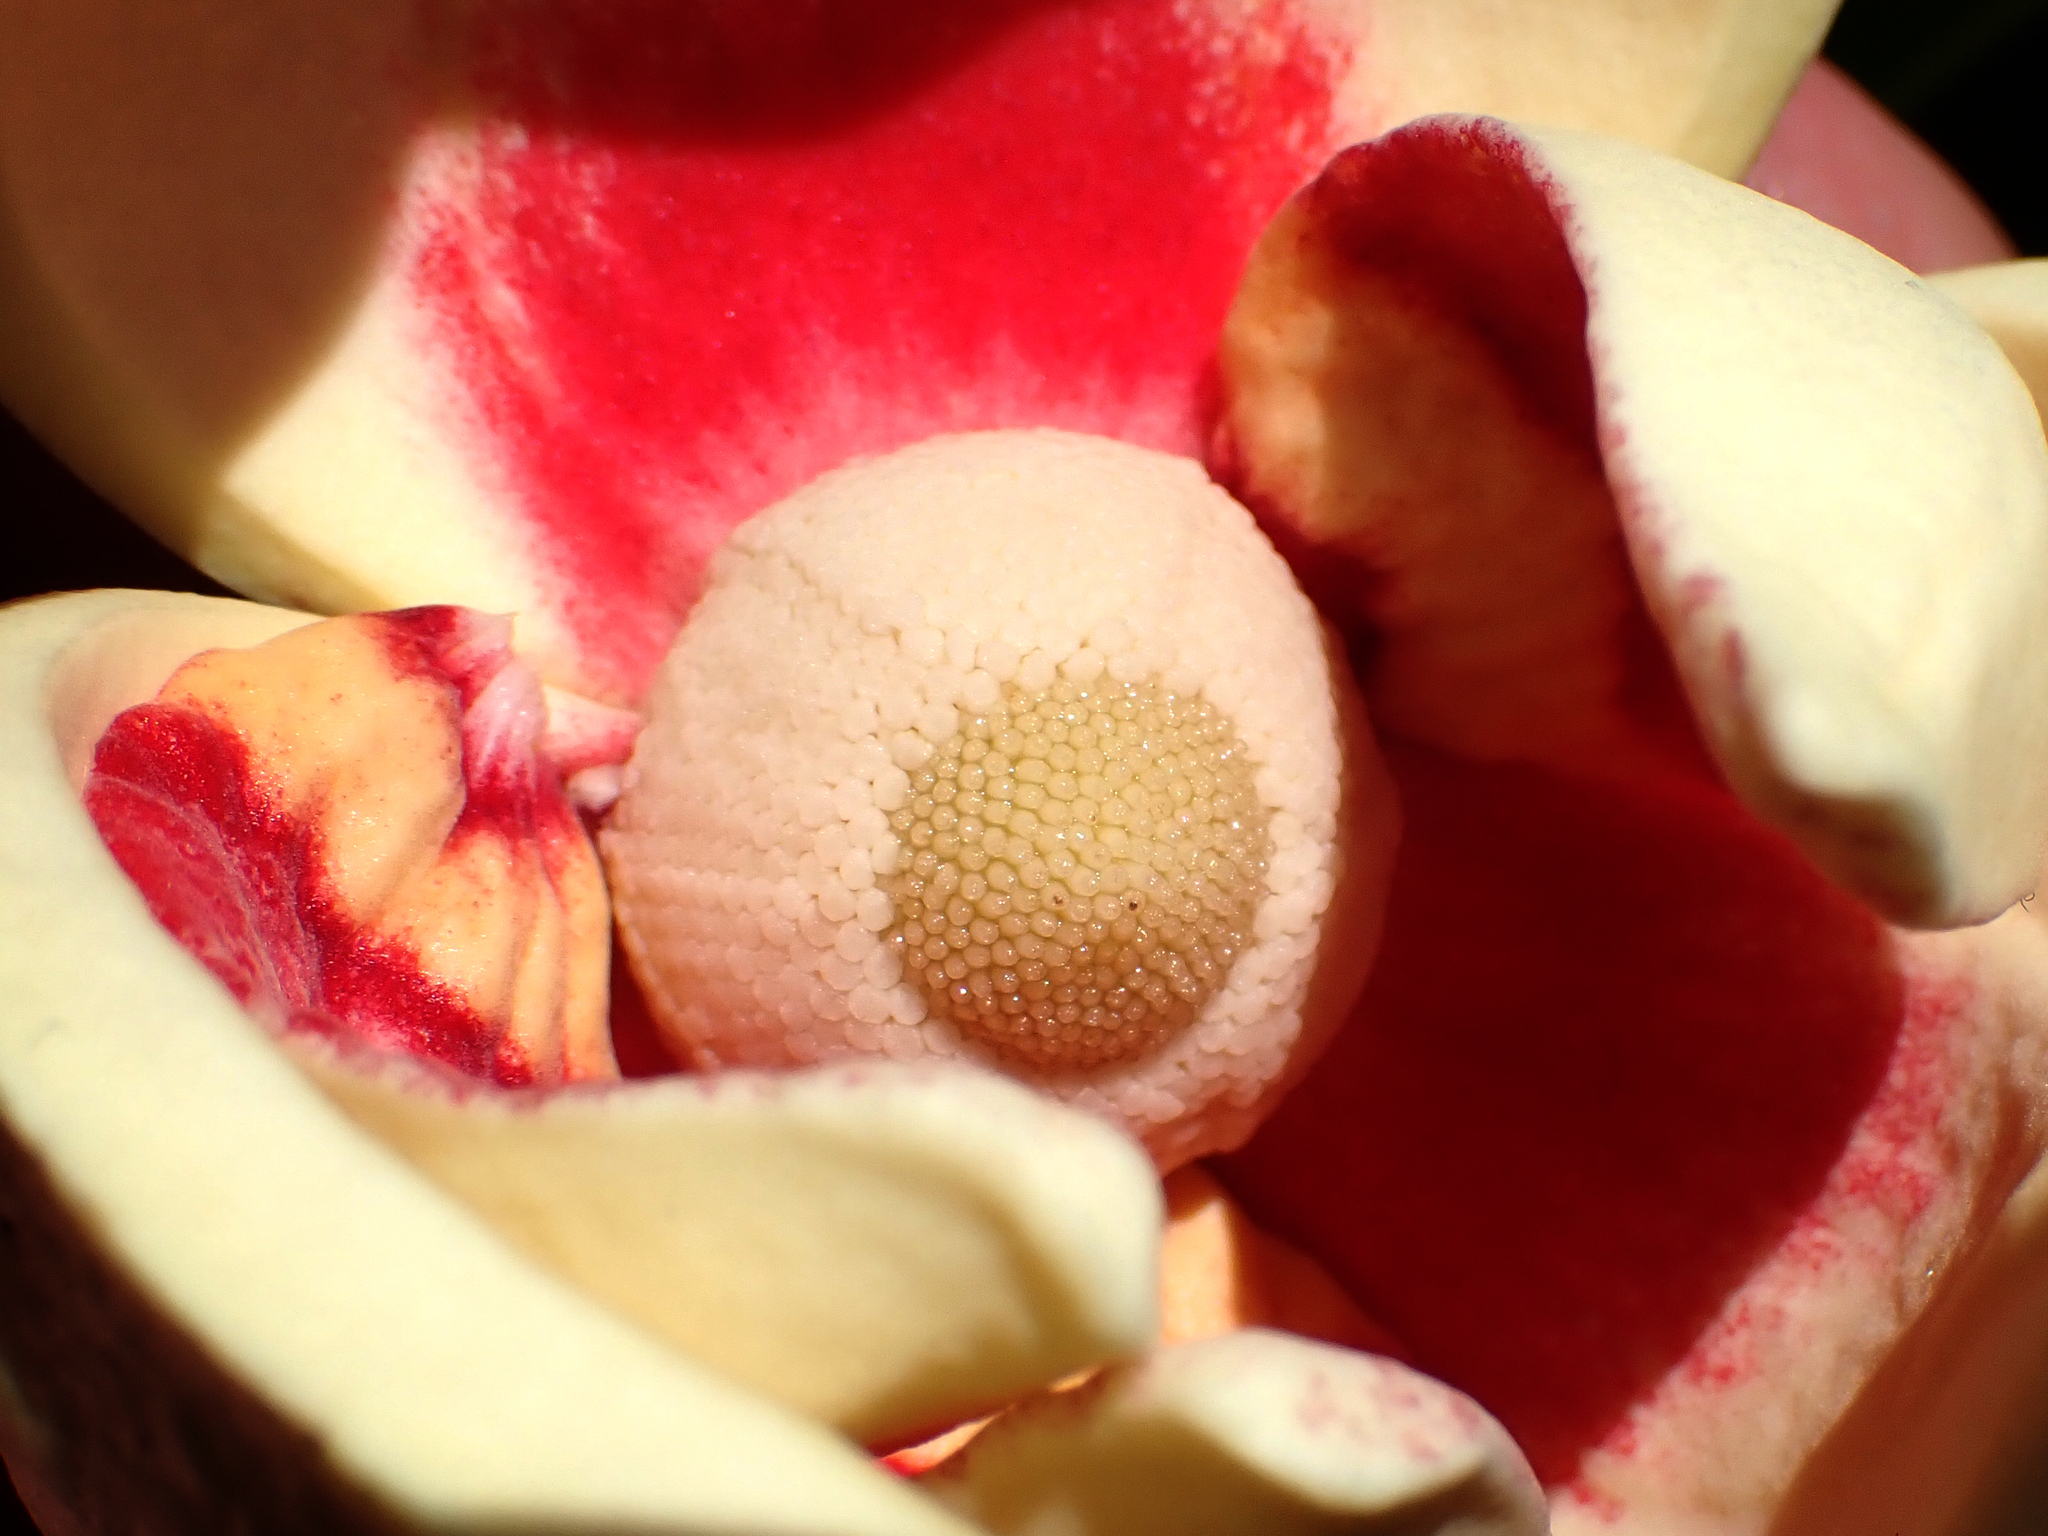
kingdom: Plantae
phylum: Tracheophyta
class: Magnoliopsida
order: Magnoliales
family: Annonaceae
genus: Annona
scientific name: Annona glabra
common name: Monkey apple
